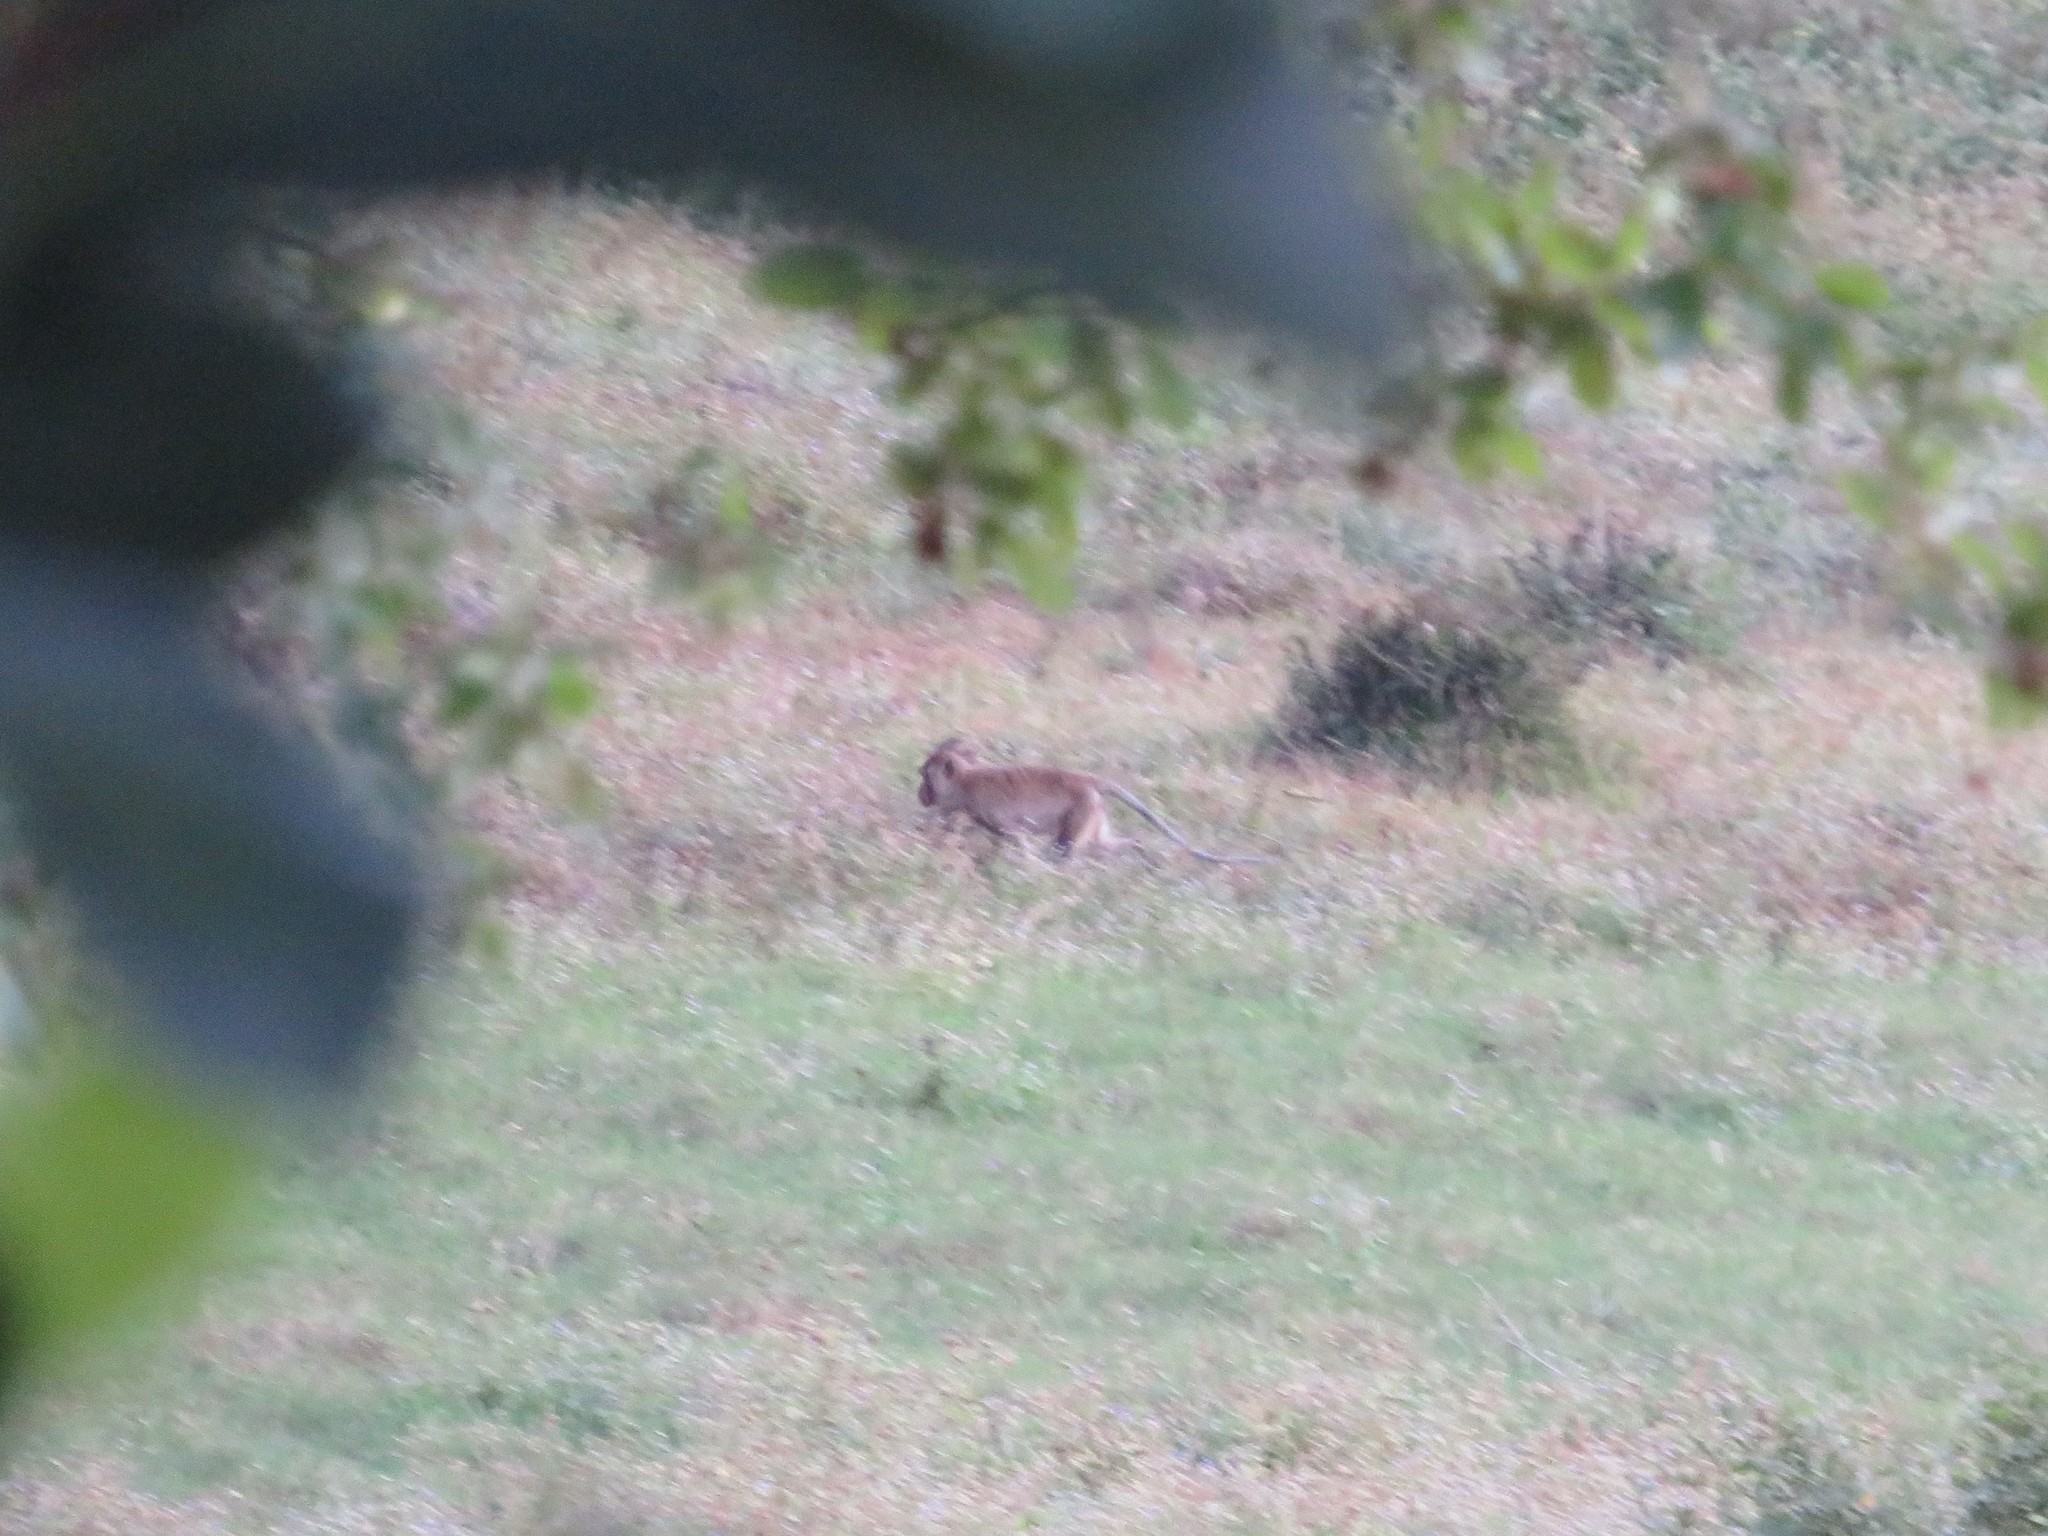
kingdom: Animalia
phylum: Chordata
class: Mammalia
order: Primates
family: Cercopithecidae
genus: Macaca
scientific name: Macaca fascicularis
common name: Crab-eating macaque
